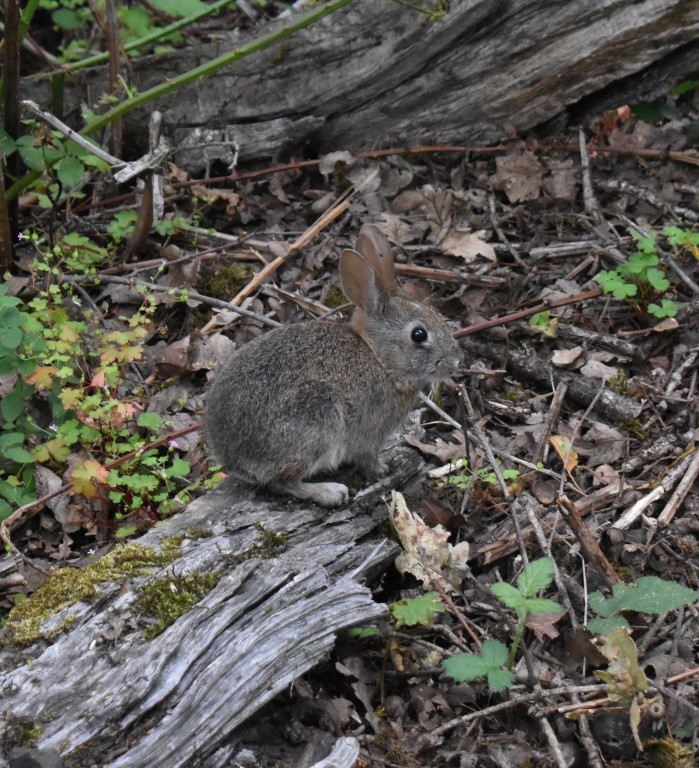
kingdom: Animalia
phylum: Chordata
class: Mammalia
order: Lagomorpha
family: Leporidae
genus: Sylvilagus
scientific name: Sylvilagus
